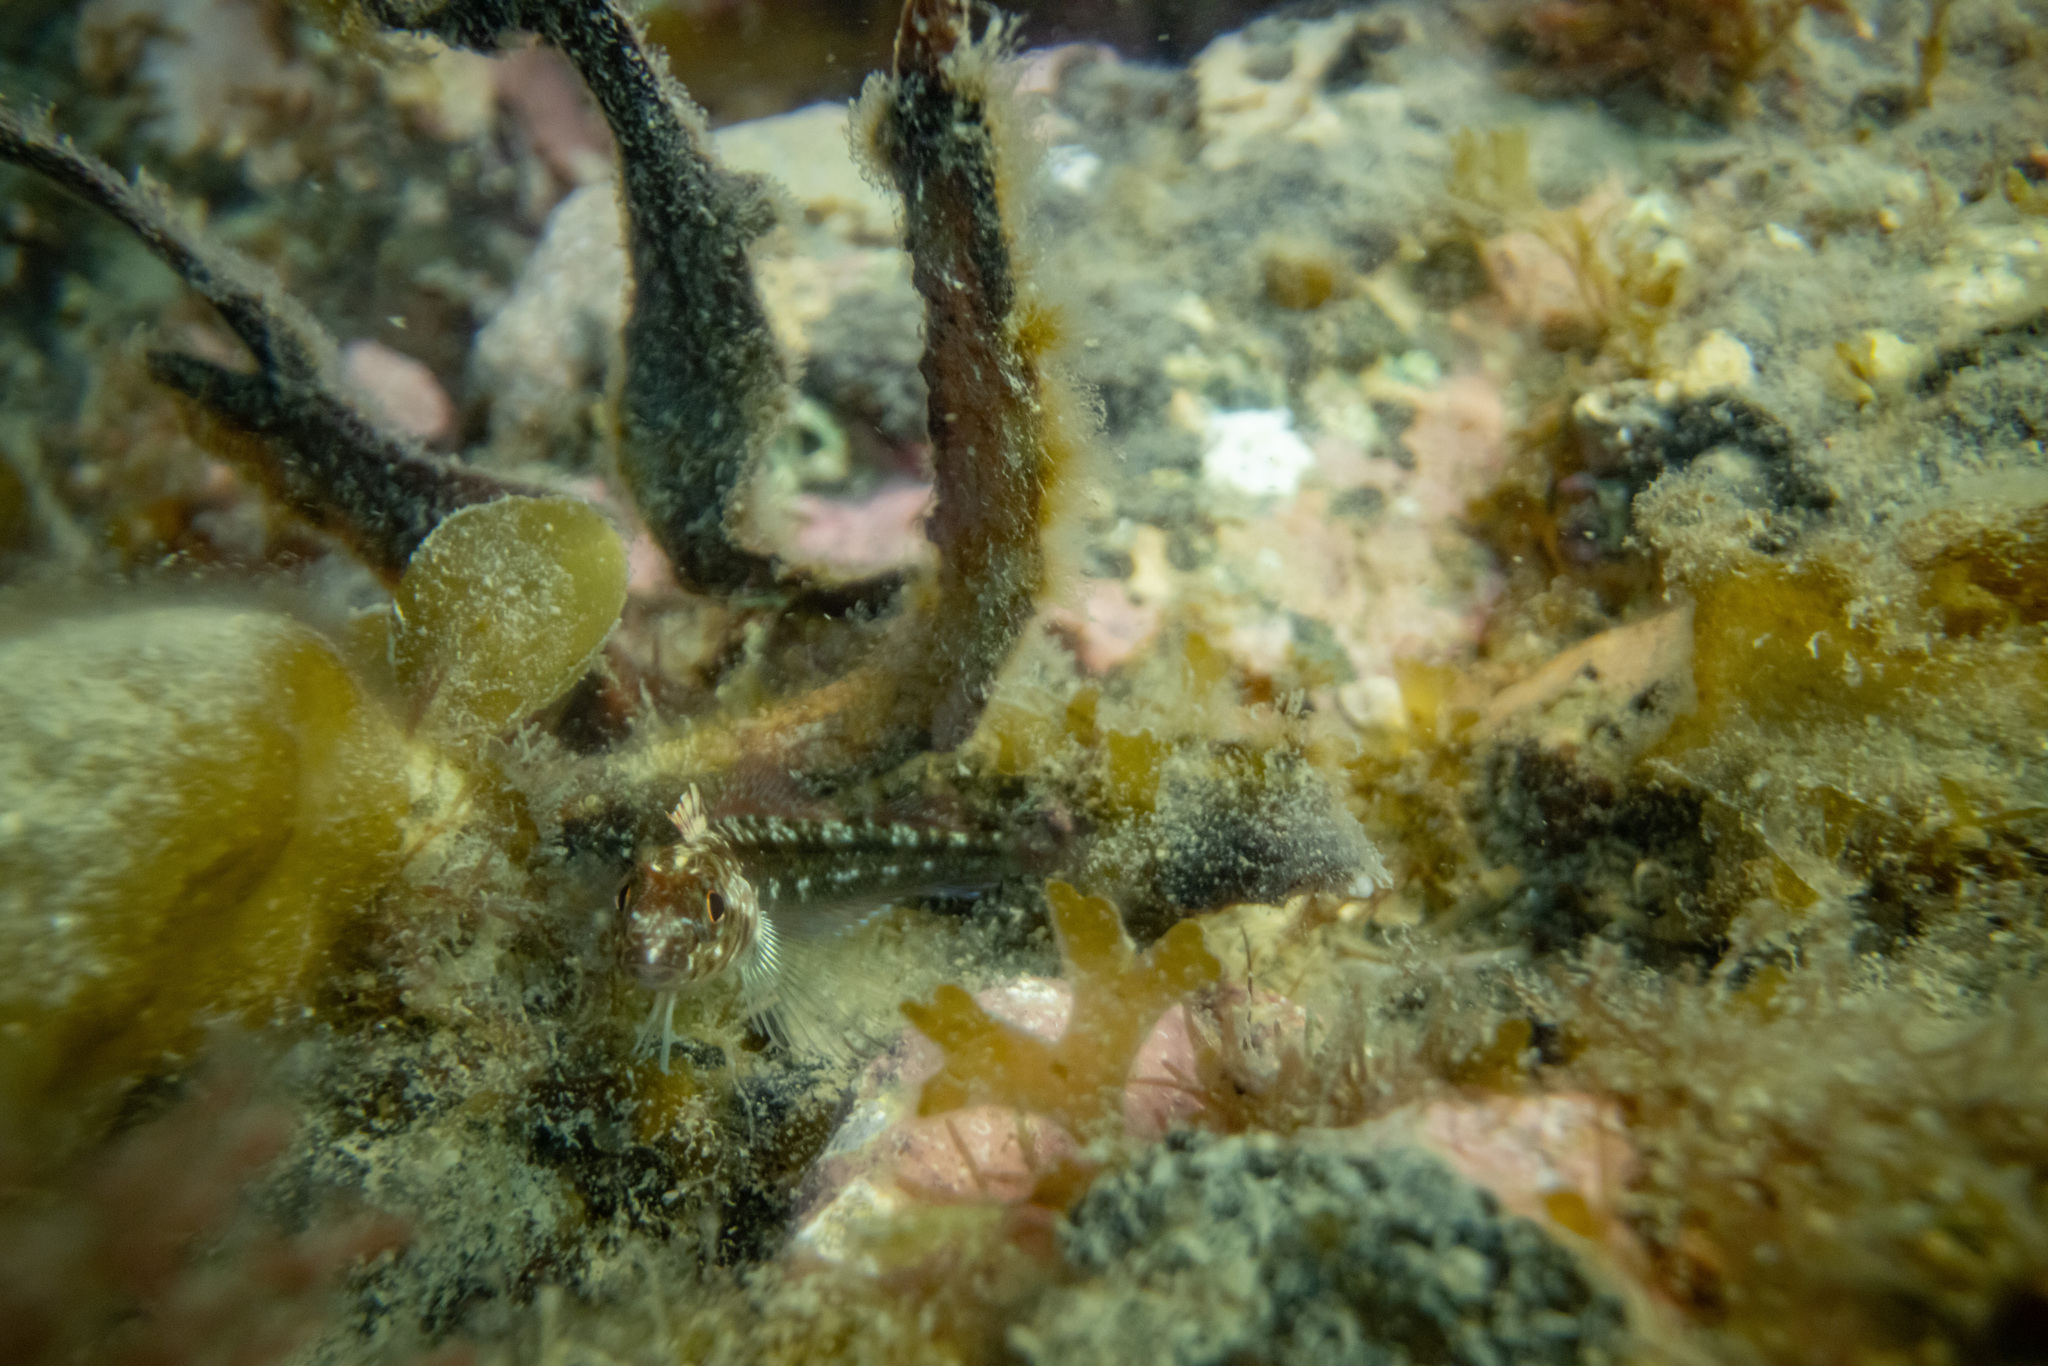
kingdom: Animalia
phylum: Chordata
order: Perciformes
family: Tripterygiidae
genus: Forsterygion
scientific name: Forsterygion lapillum
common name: Common triplefin
